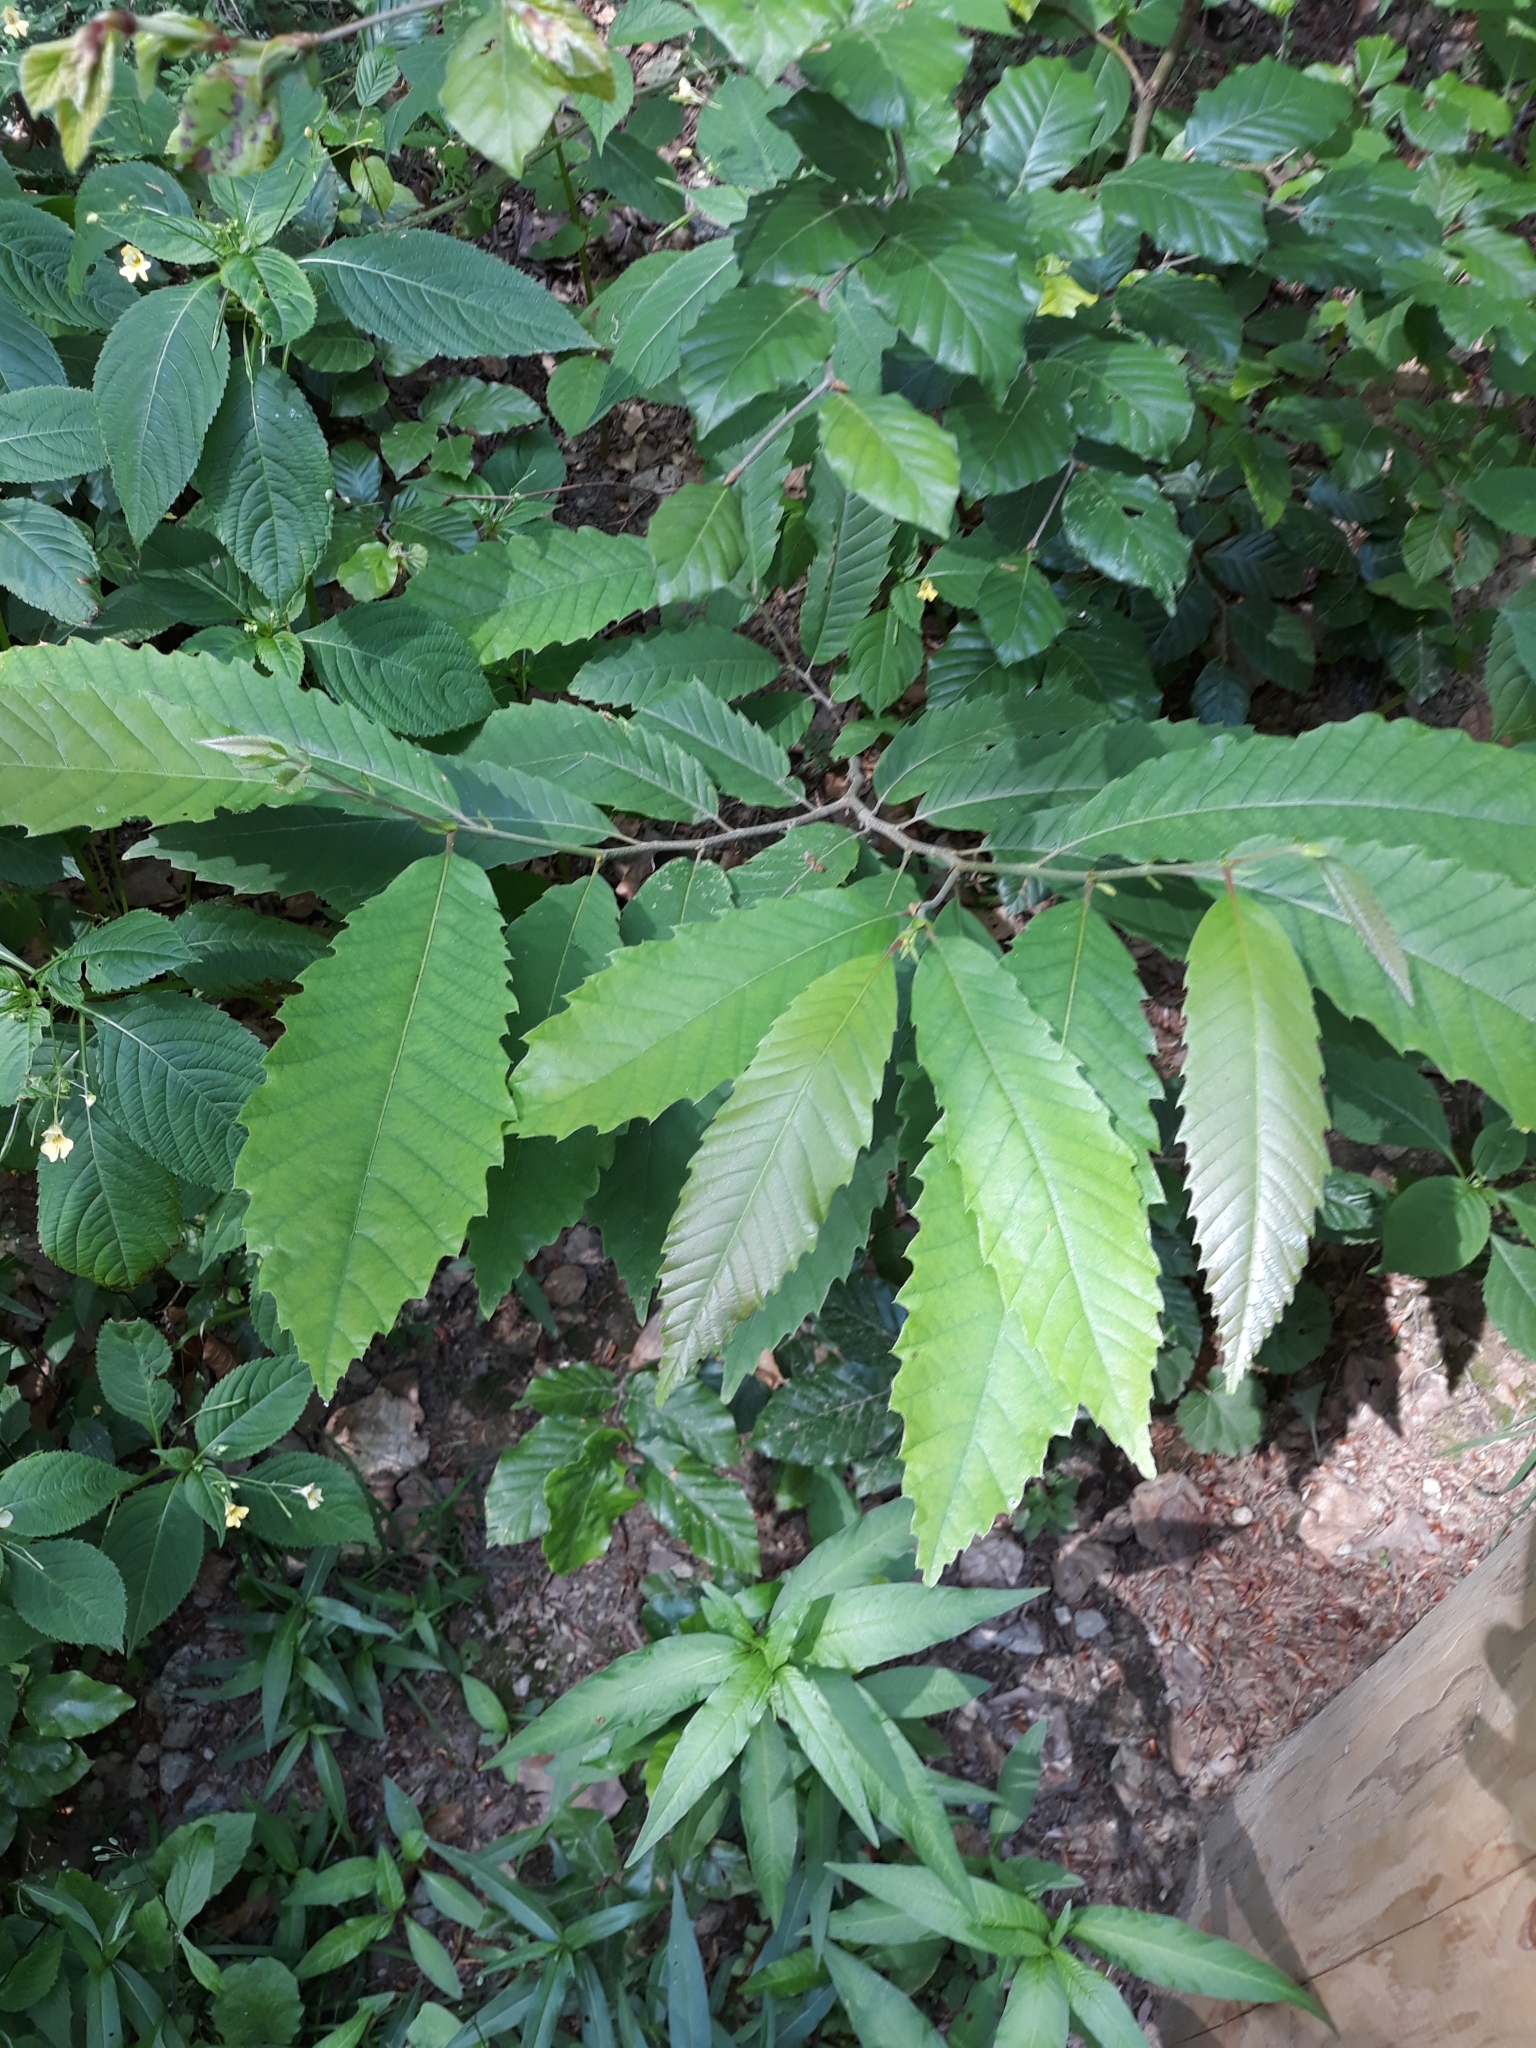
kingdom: Plantae
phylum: Tracheophyta
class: Magnoliopsida
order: Fagales
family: Fagaceae
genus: Castanea
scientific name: Castanea sativa
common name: Sweet chestnut
